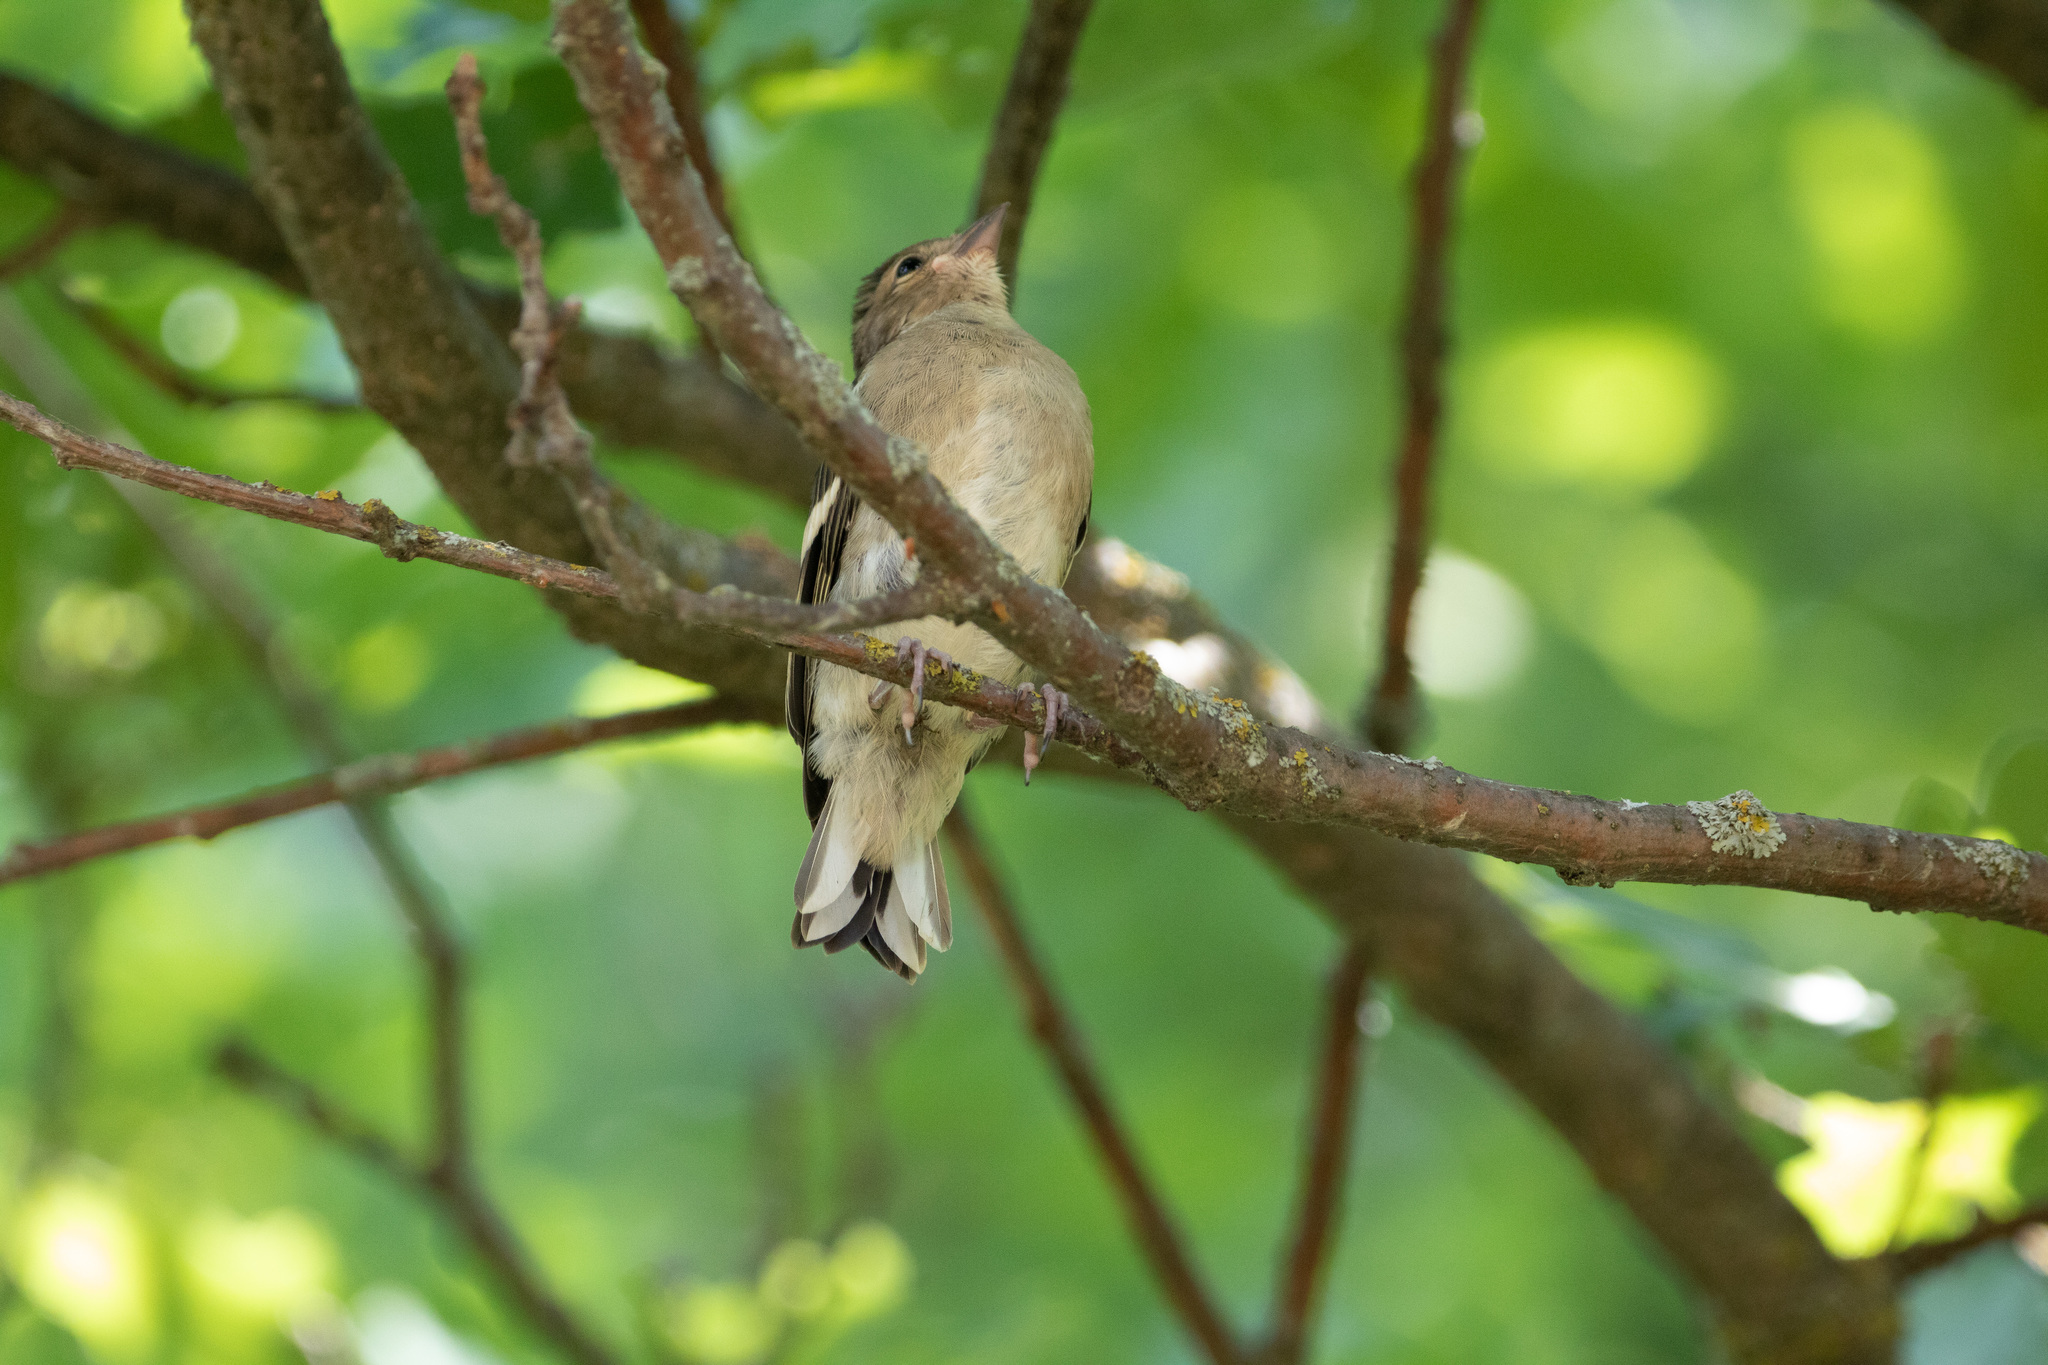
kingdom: Animalia
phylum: Chordata
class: Aves
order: Passeriformes
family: Fringillidae
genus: Fringilla
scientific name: Fringilla coelebs
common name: Common chaffinch
